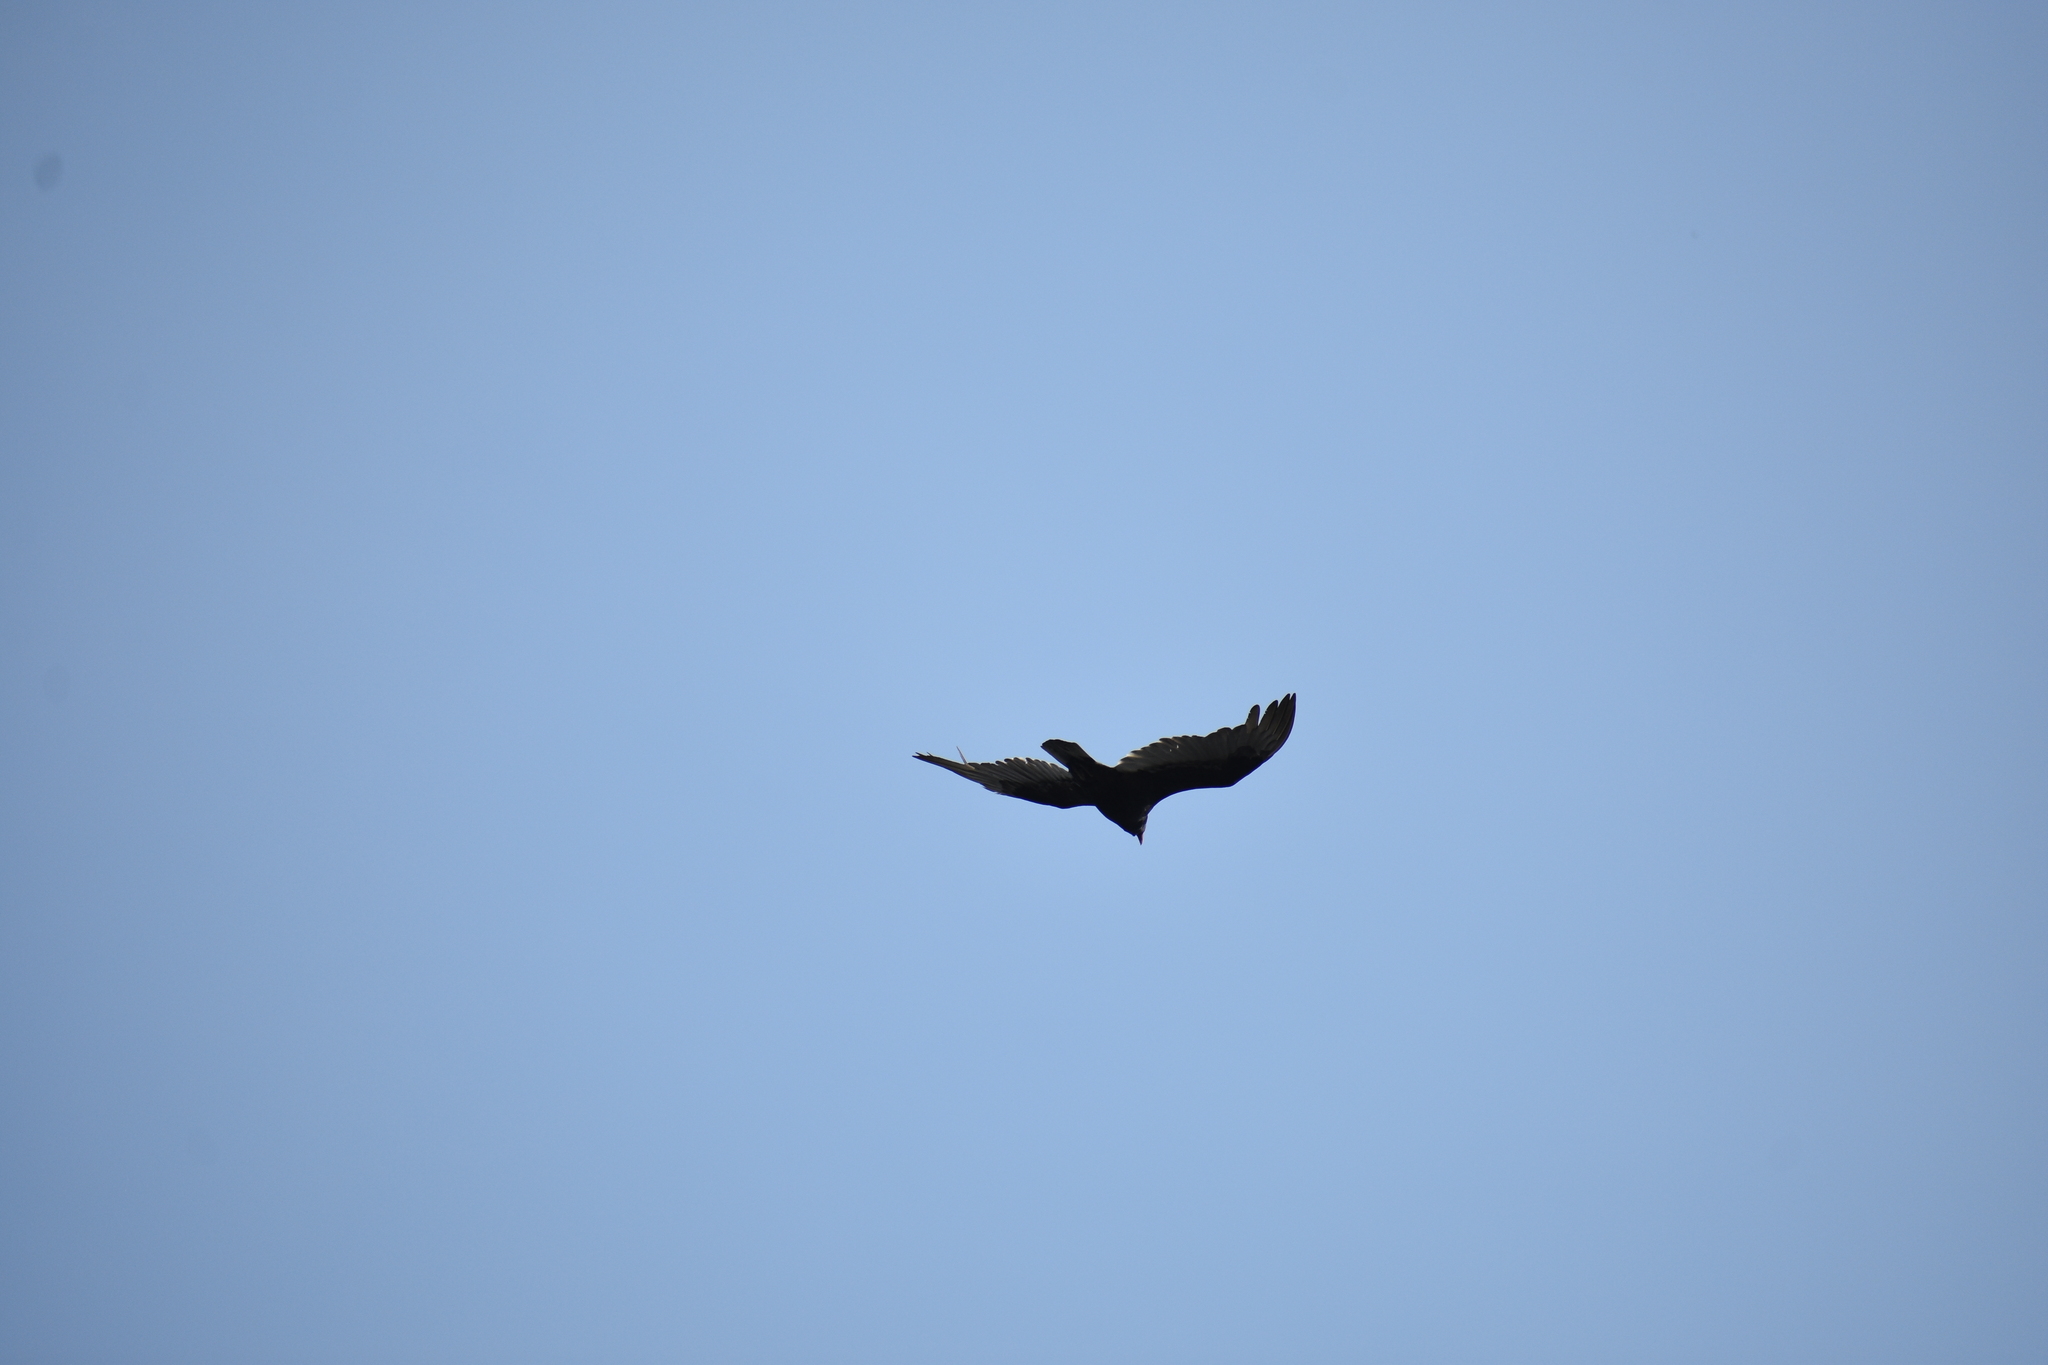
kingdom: Animalia
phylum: Chordata
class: Aves
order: Accipitriformes
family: Cathartidae
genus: Cathartes
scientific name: Cathartes aura
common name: Turkey vulture
